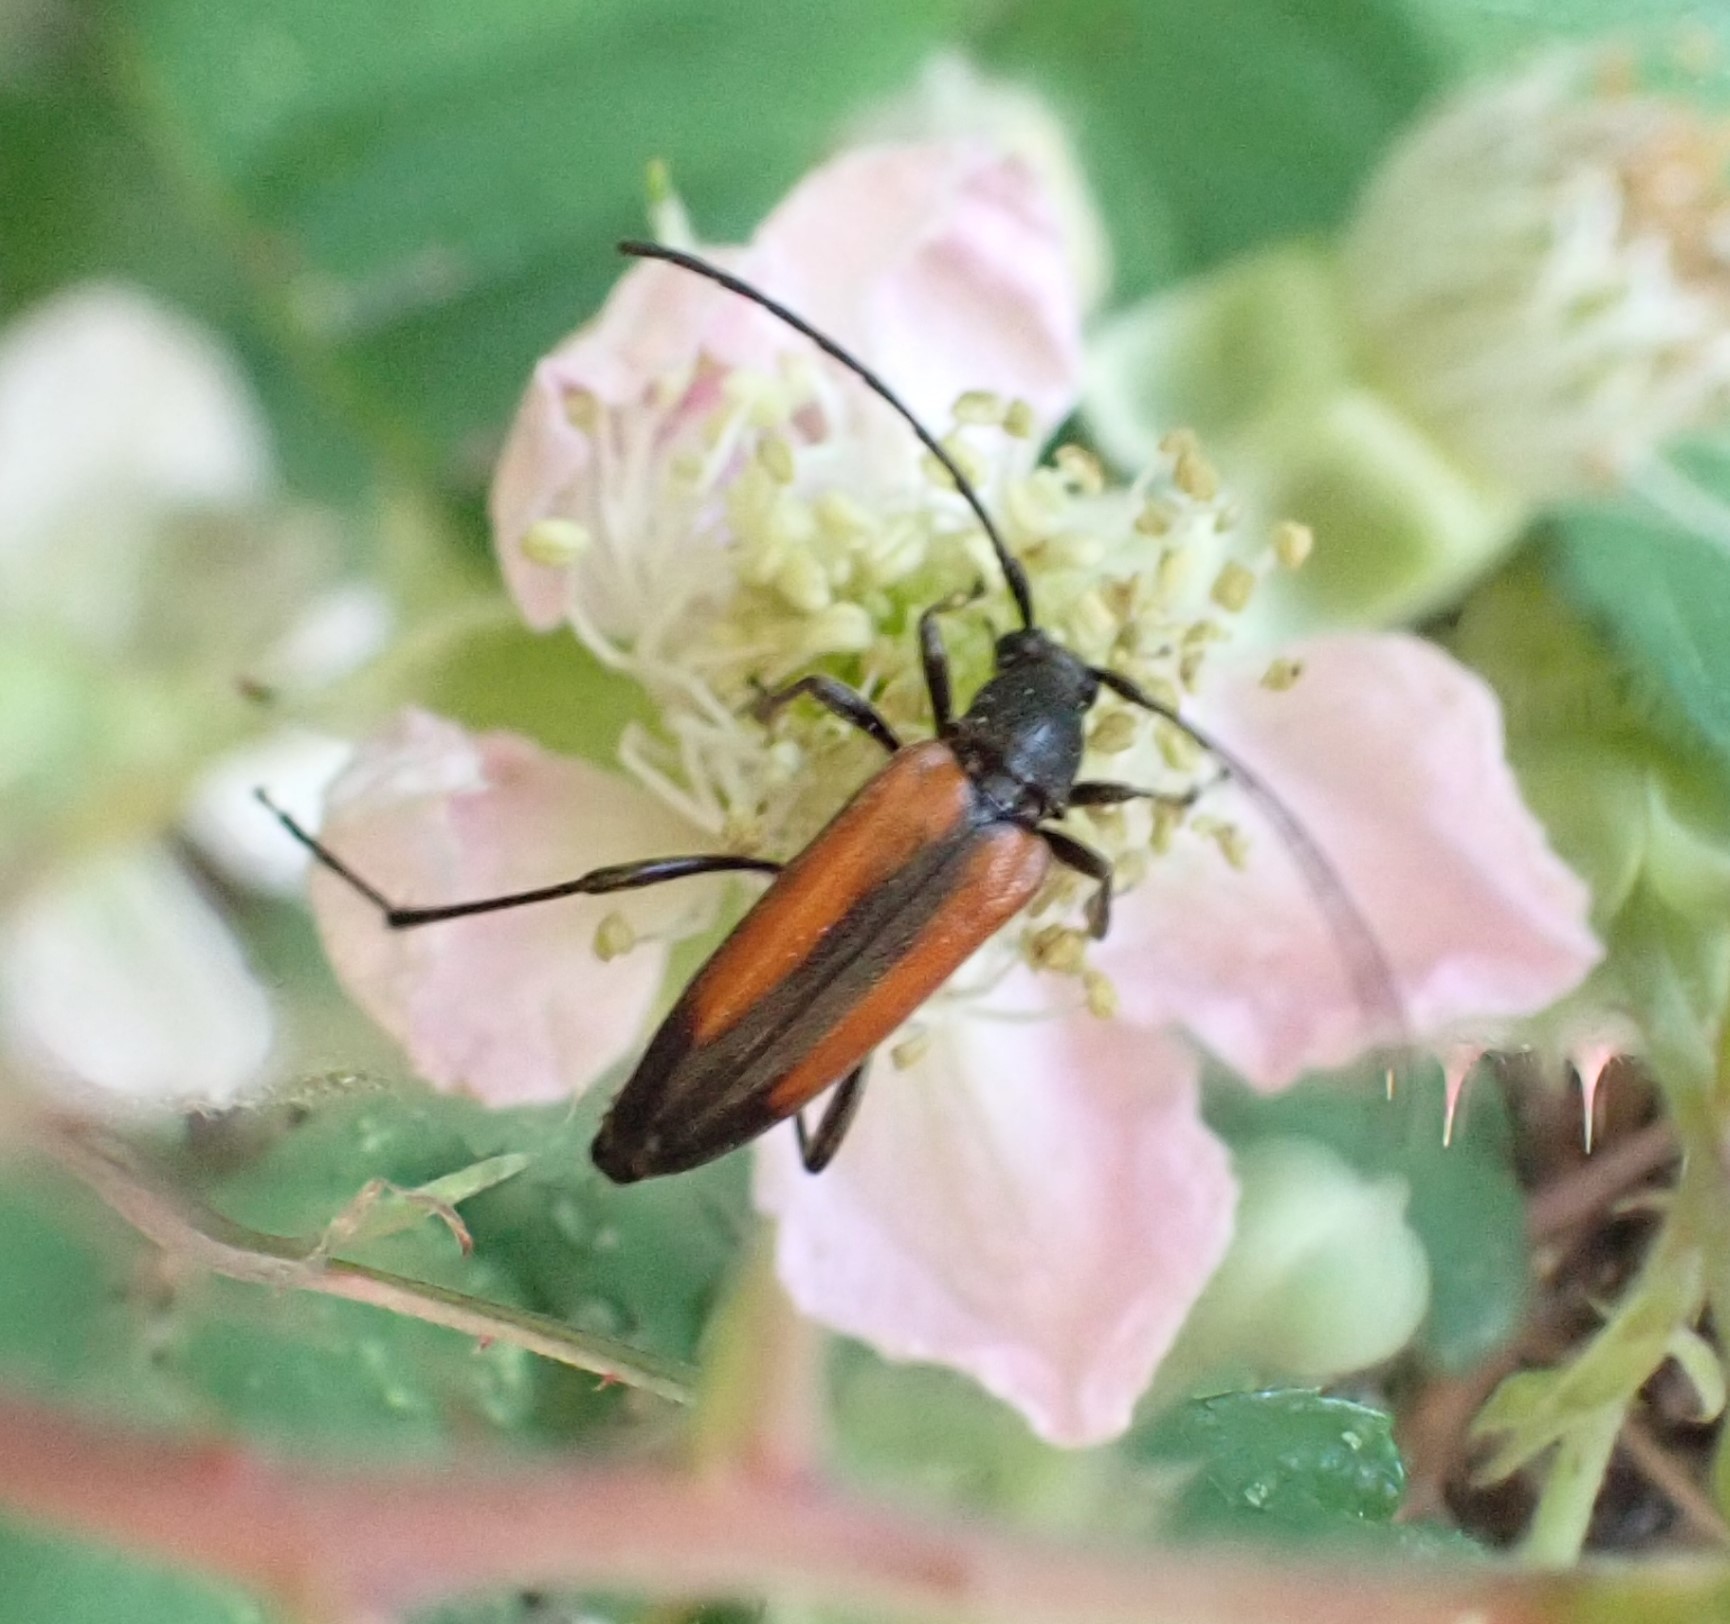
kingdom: Animalia
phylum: Arthropoda
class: Insecta
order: Coleoptera
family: Cerambycidae
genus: Stenurella
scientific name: Stenurella melanura
